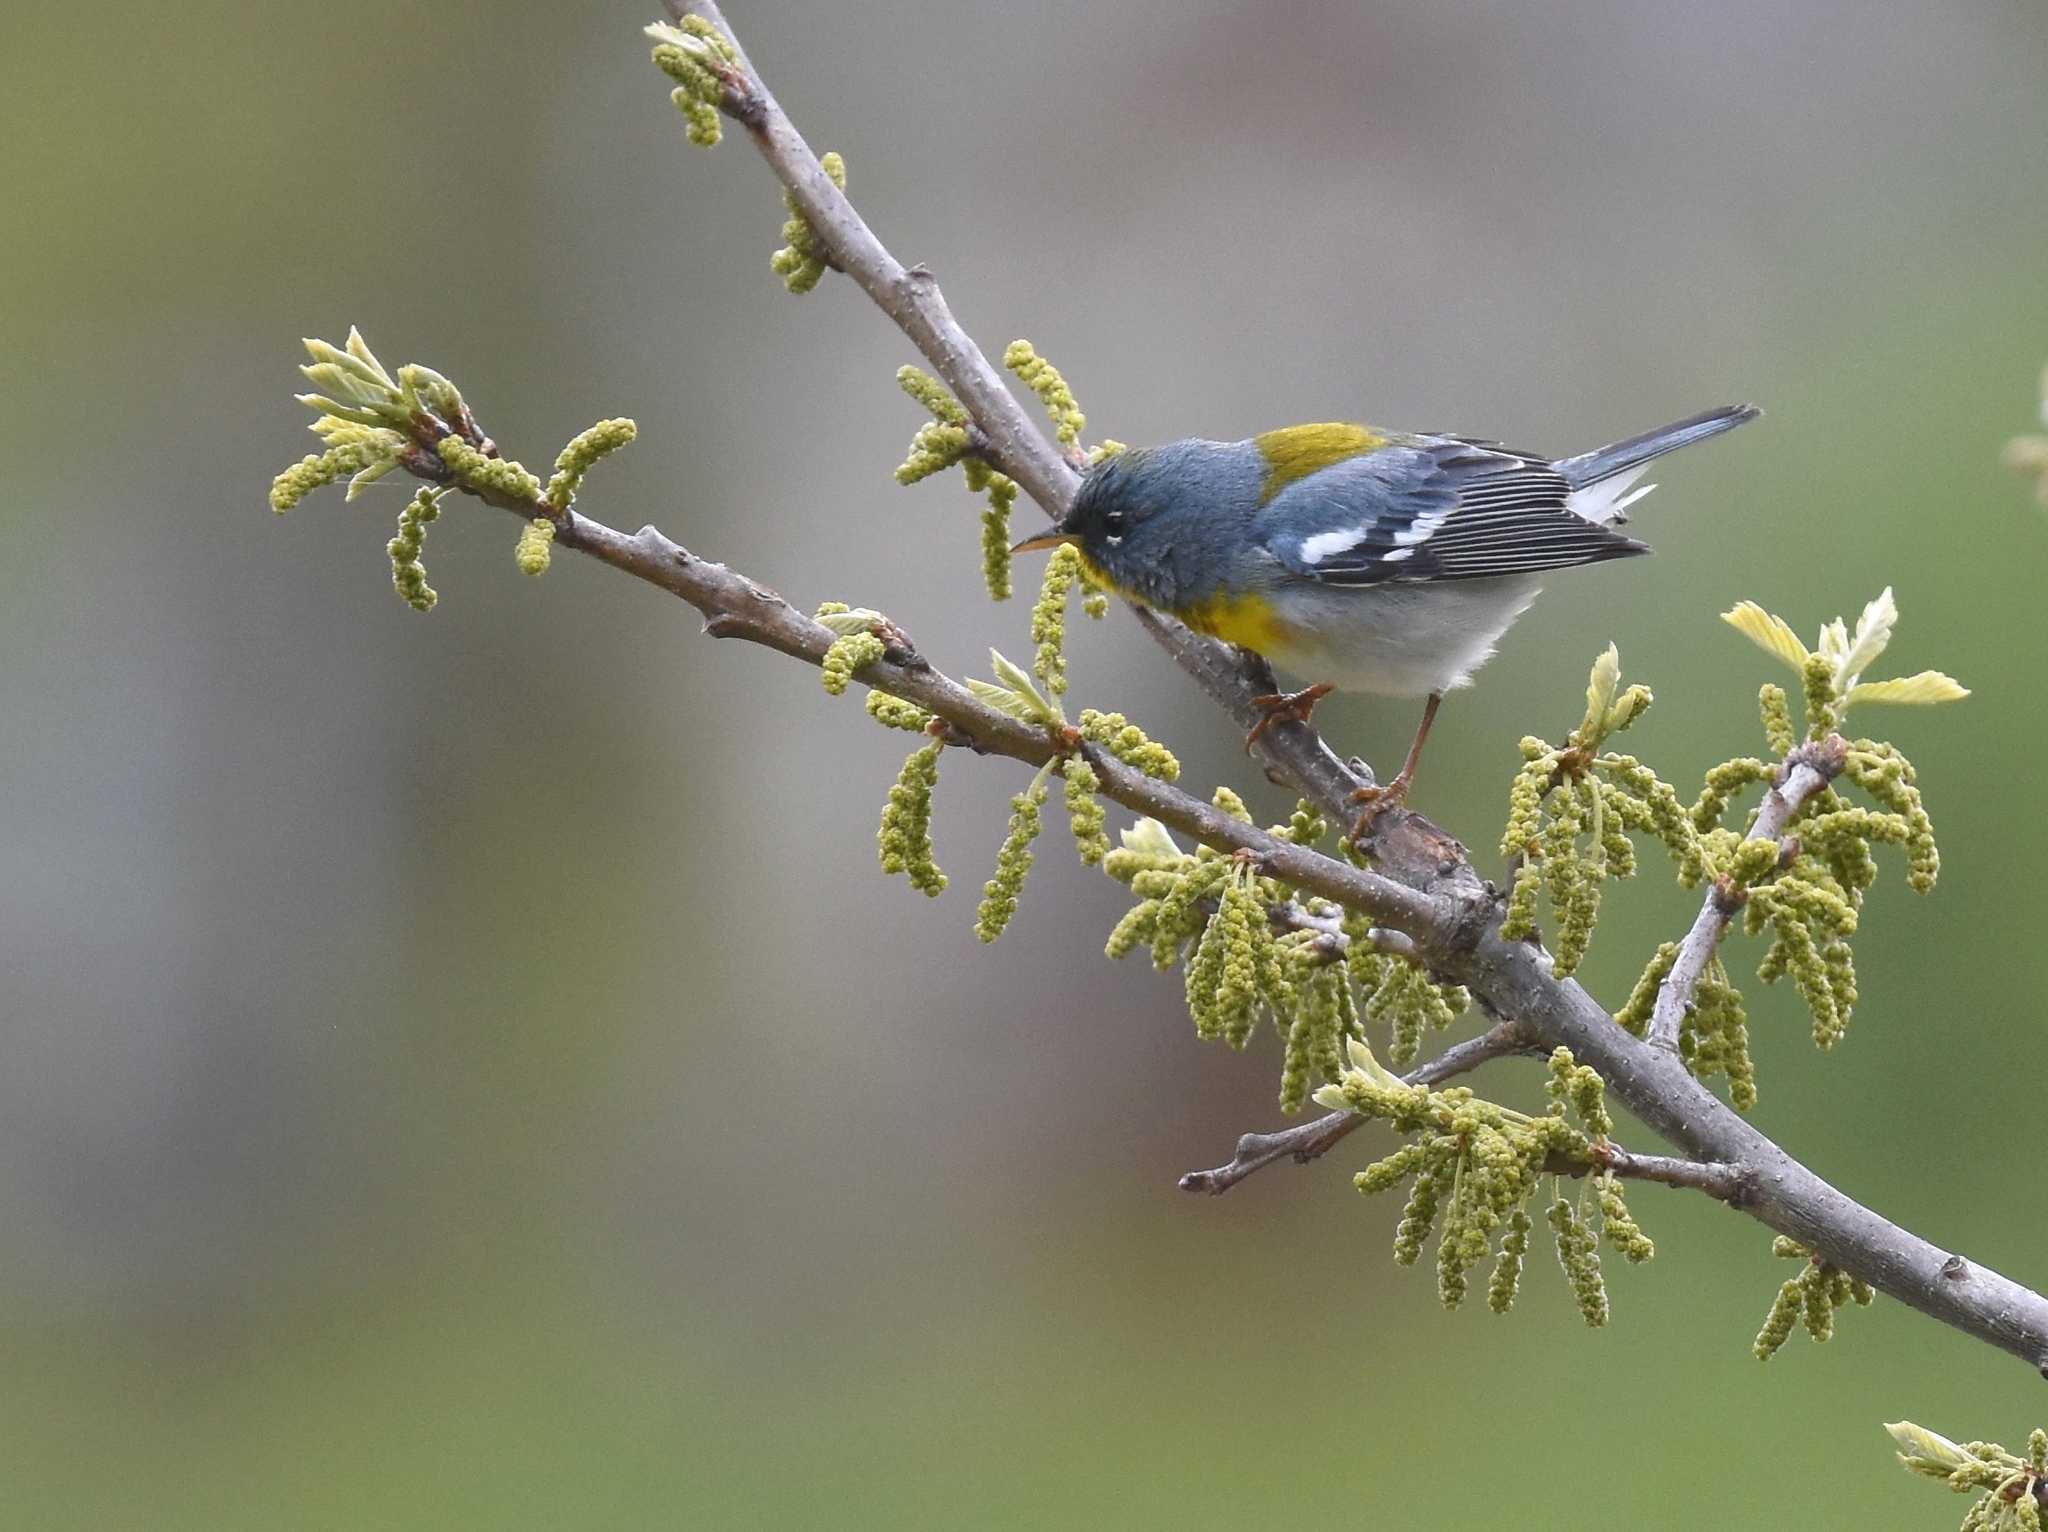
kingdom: Animalia
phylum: Chordata
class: Aves
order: Passeriformes
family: Parulidae
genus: Setophaga
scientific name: Setophaga americana
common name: Northern parula
